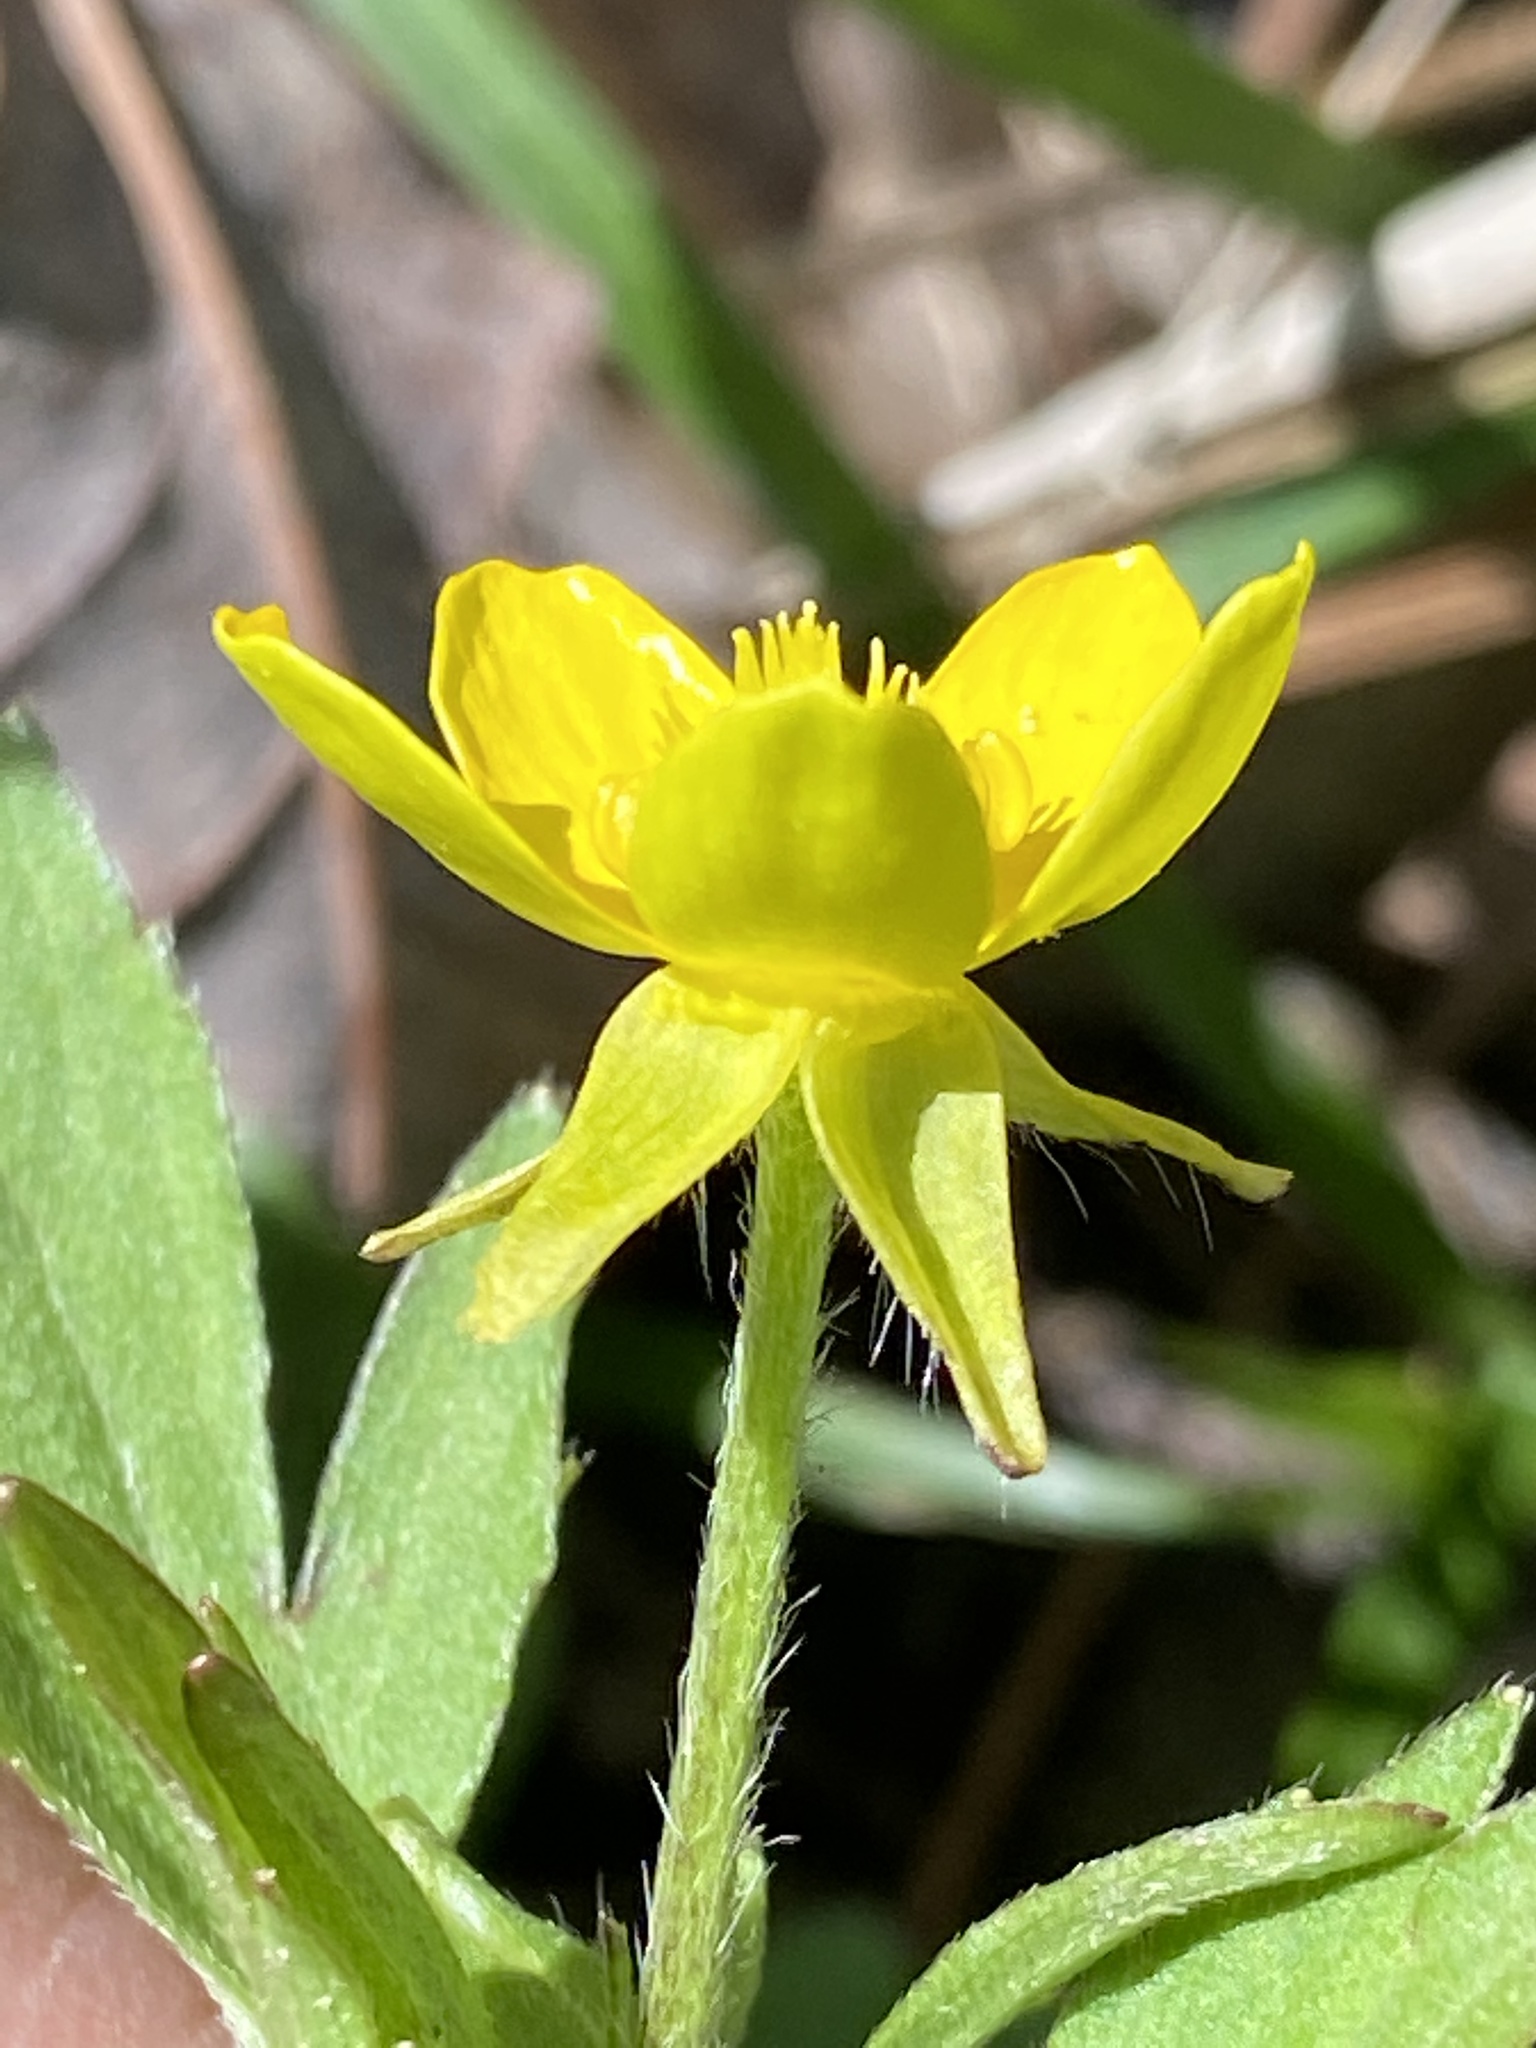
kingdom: Plantae
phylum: Tracheophyta
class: Magnoliopsida
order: Ranunculales
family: Ranunculaceae
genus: Ranunculus
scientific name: Ranunculus hispidus
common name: Bristly buttercup
